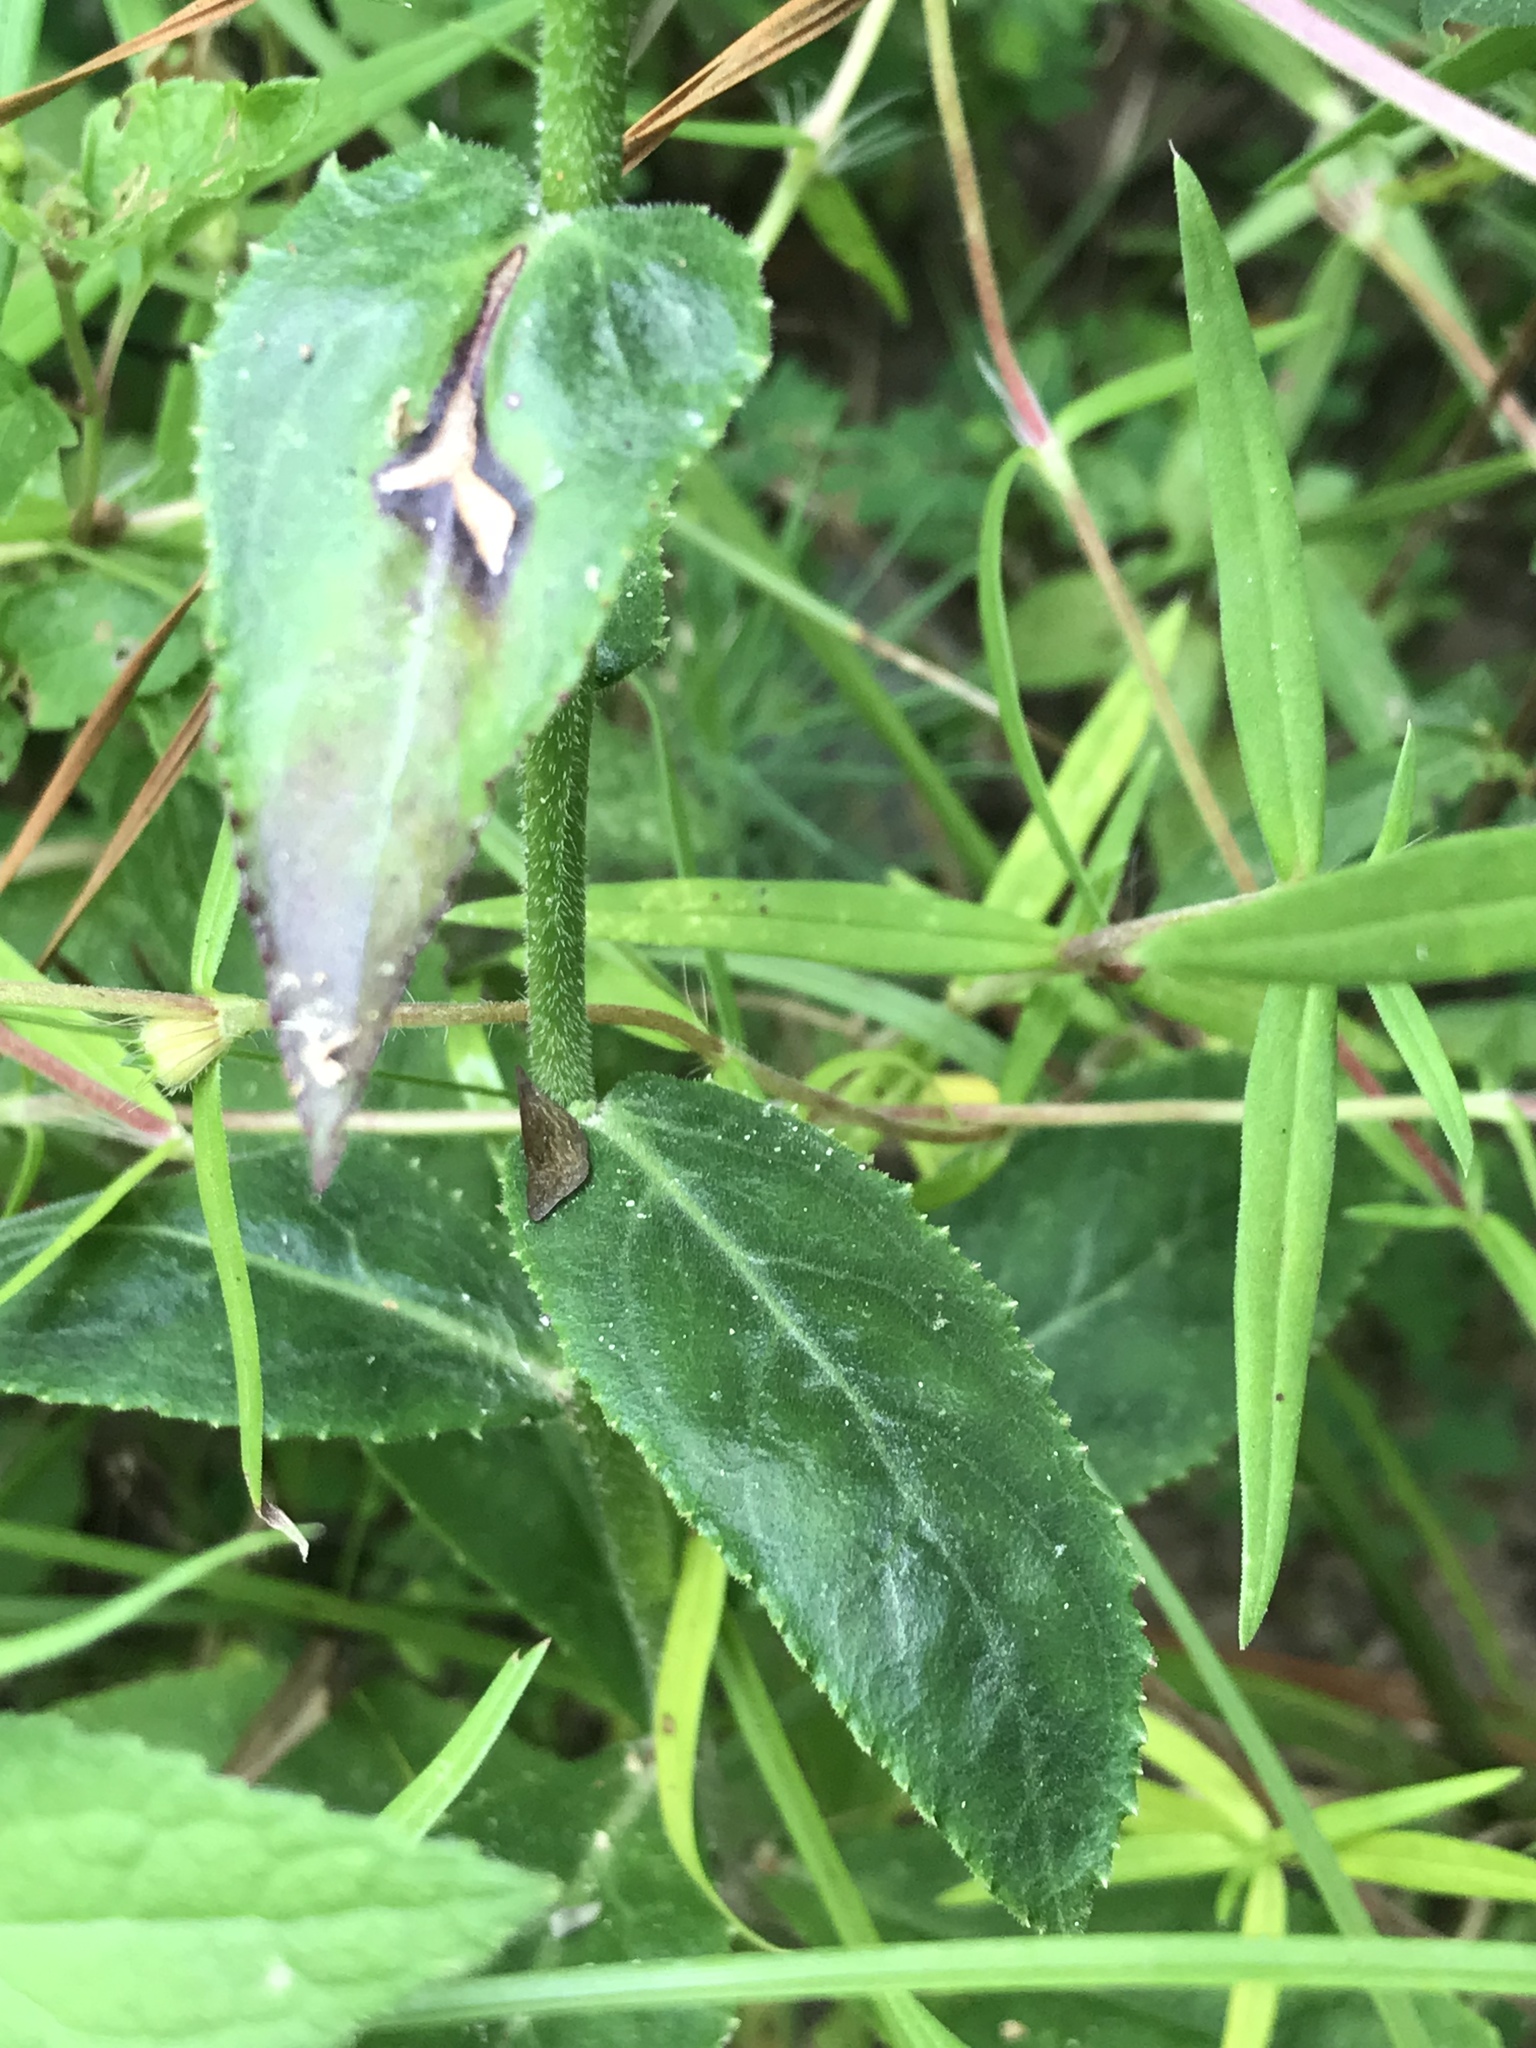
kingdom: Plantae
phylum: Tracheophyta
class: Magnoliopsida
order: Asterales
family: Campanulaceae
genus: Lobelia
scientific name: Lobelia puberula
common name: Purple dewdrop
